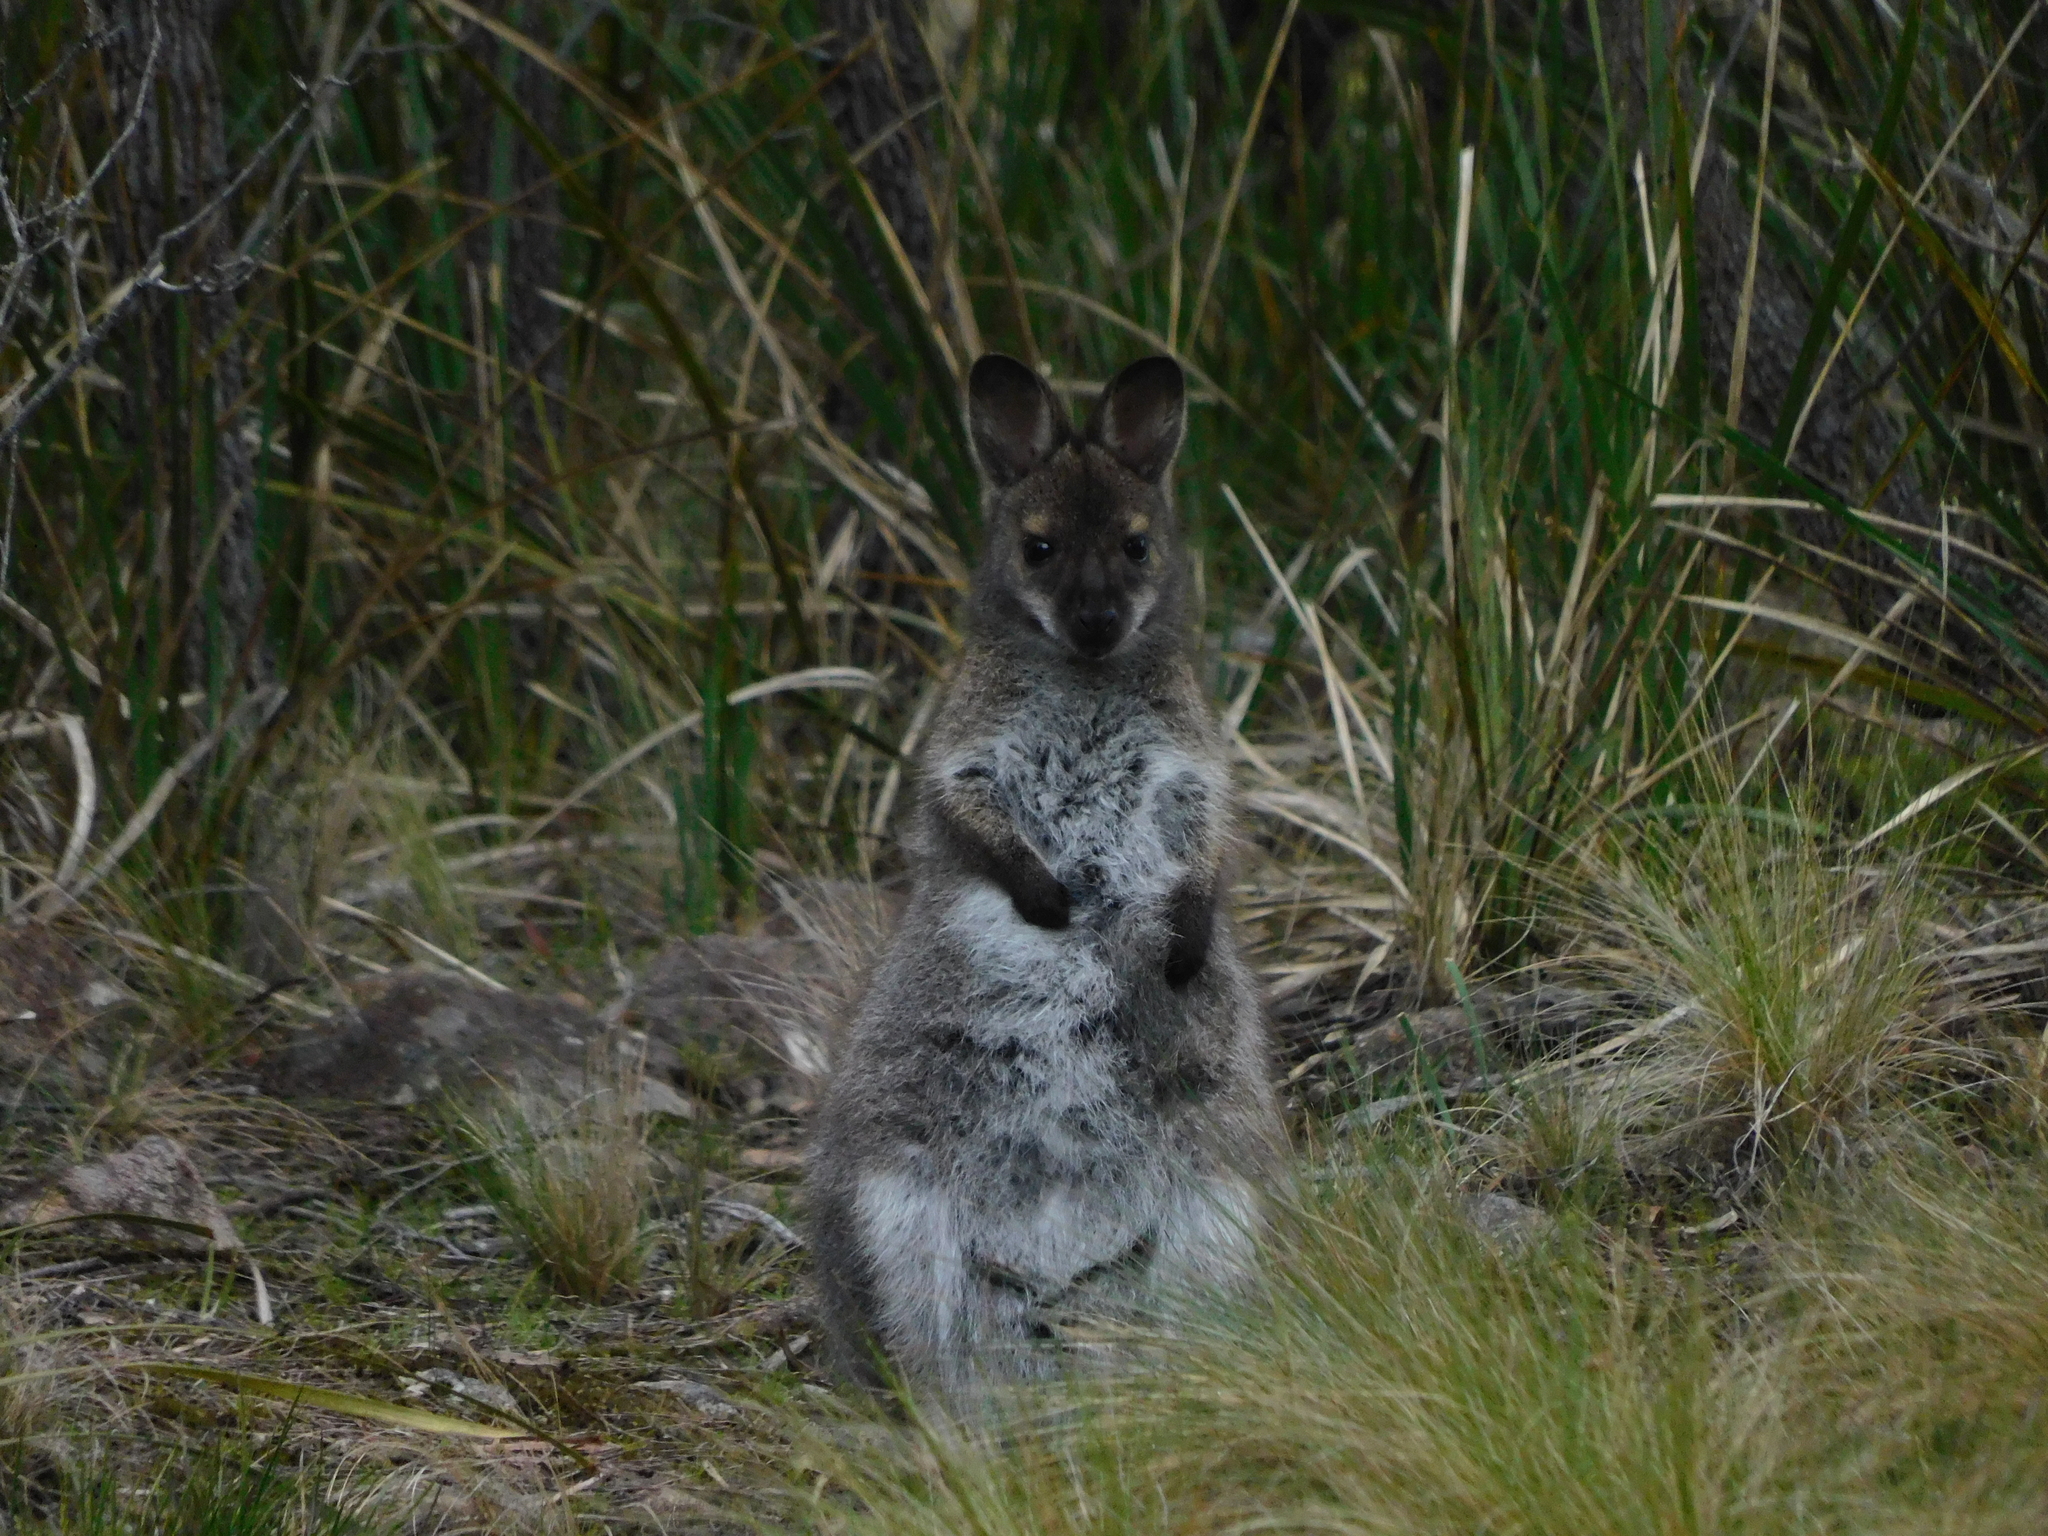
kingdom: Animalia
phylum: Chordata
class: Mammalia
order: Diprotodontia
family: Macropodidae
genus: Notamacropus
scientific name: Notamacropus rufogriseus
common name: Red-necked wallaby
